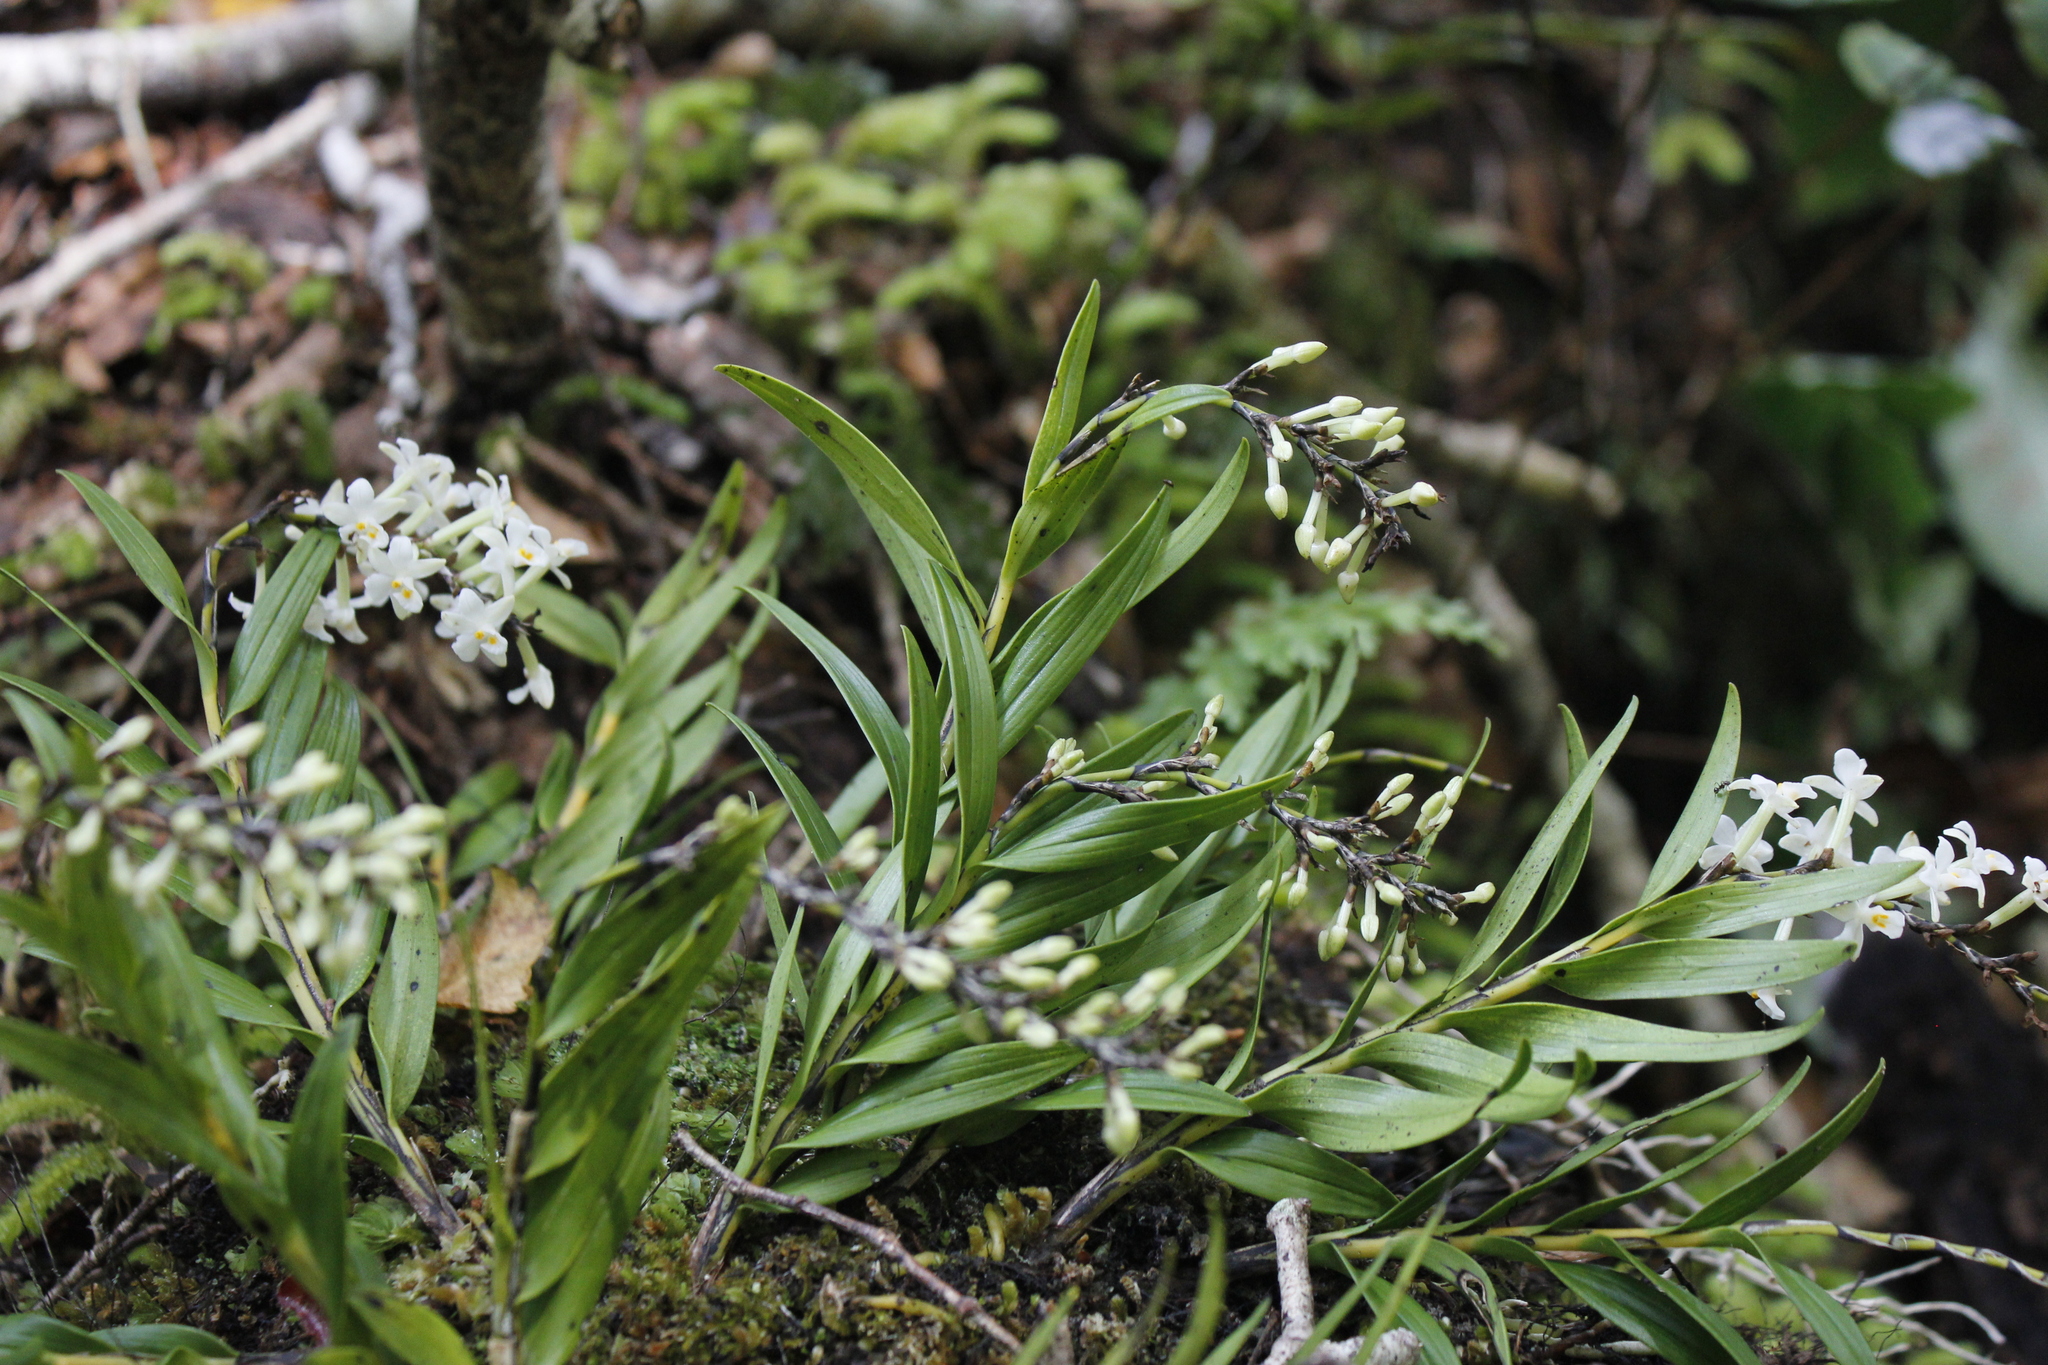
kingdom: Plantae
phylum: Tracheophyta
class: Liliopsida
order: Asparagales
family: Orchidaceae
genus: Earina
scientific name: Earina autumnalis
